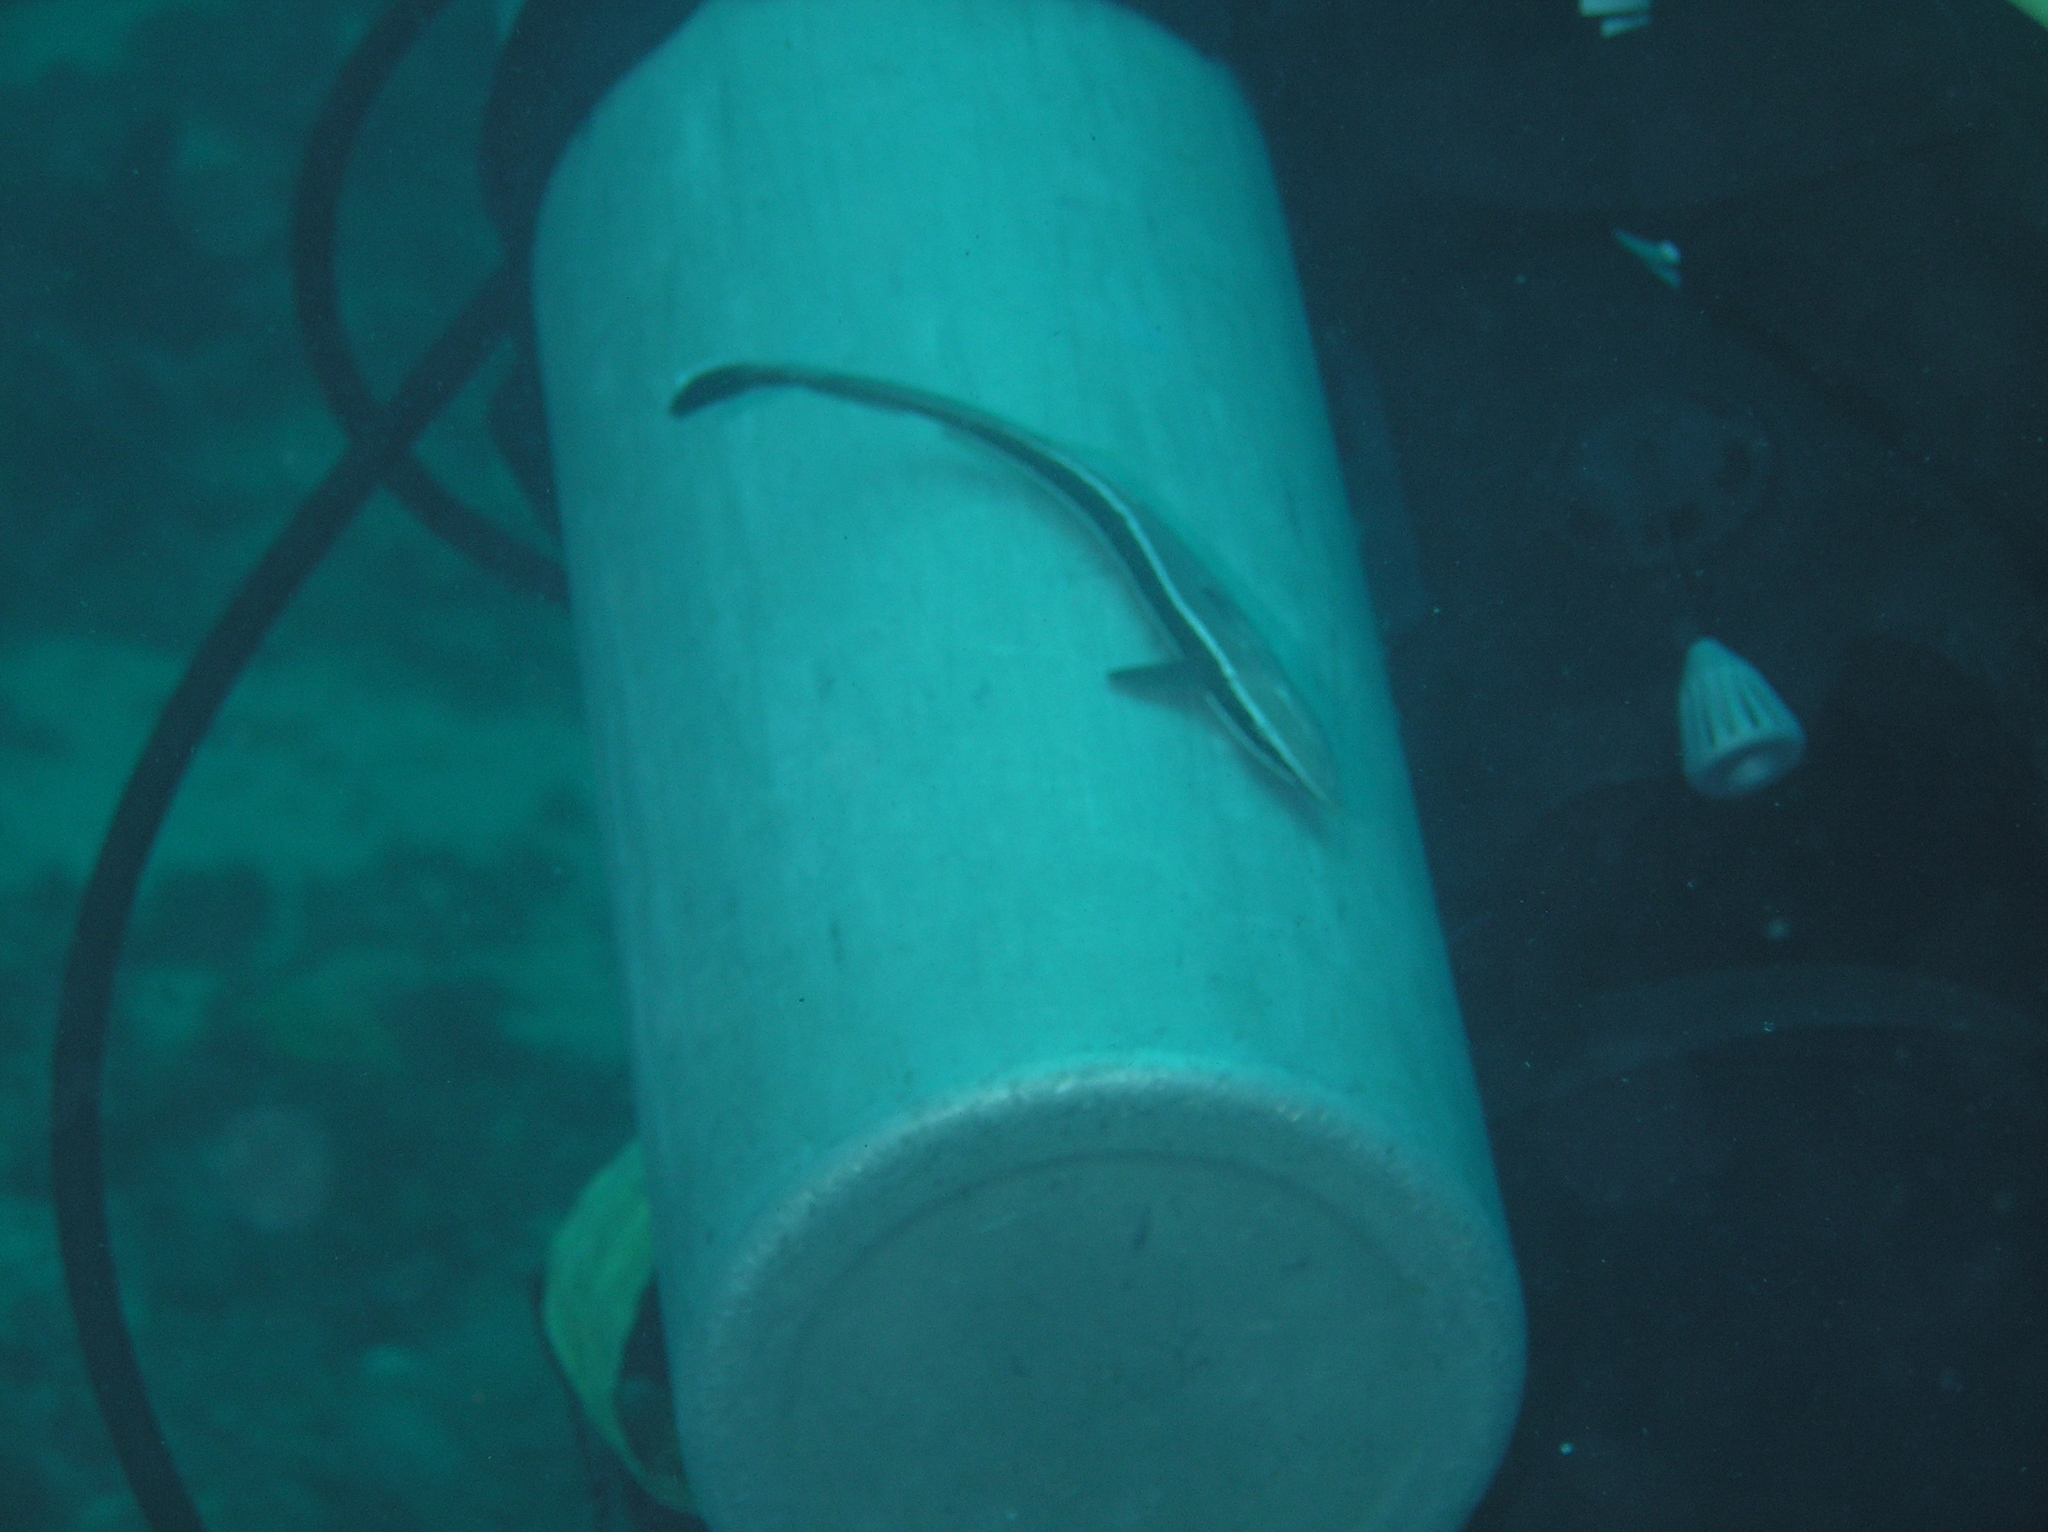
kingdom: Animalia
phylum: Chordata
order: Perciformes
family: Echeneidae
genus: Echeneis
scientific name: Echeneis naucrates
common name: Sharksucker
